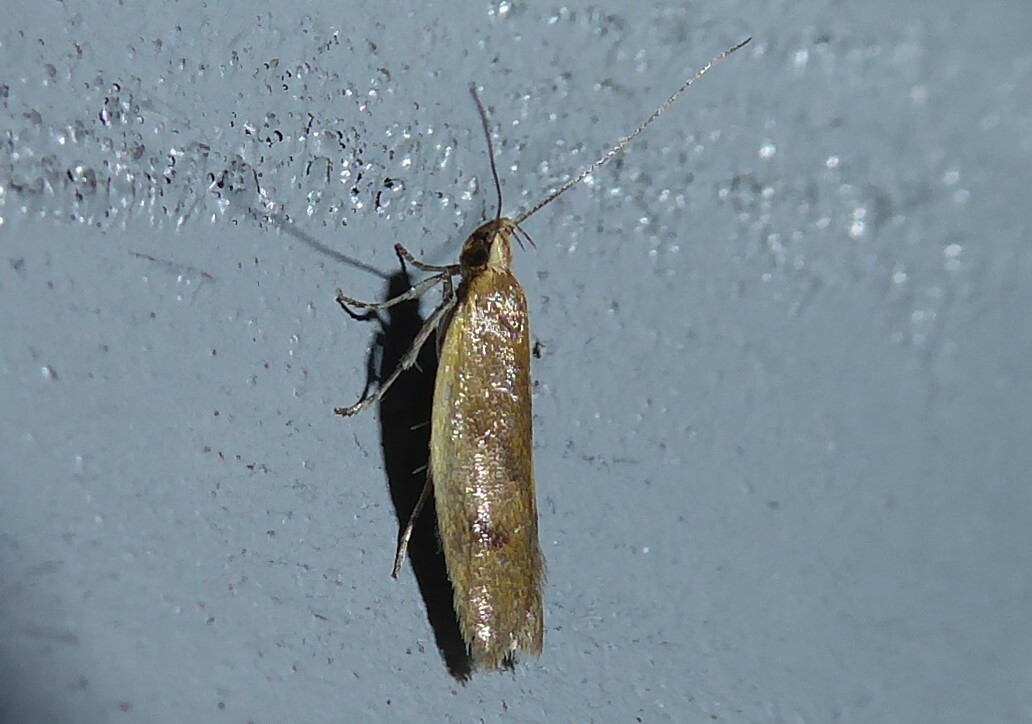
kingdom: Animalia
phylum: Arthropoda
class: Insecta
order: Lepidoptera
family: Oecophoridae
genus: Gymnobathra
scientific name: Gymnobathra parca
